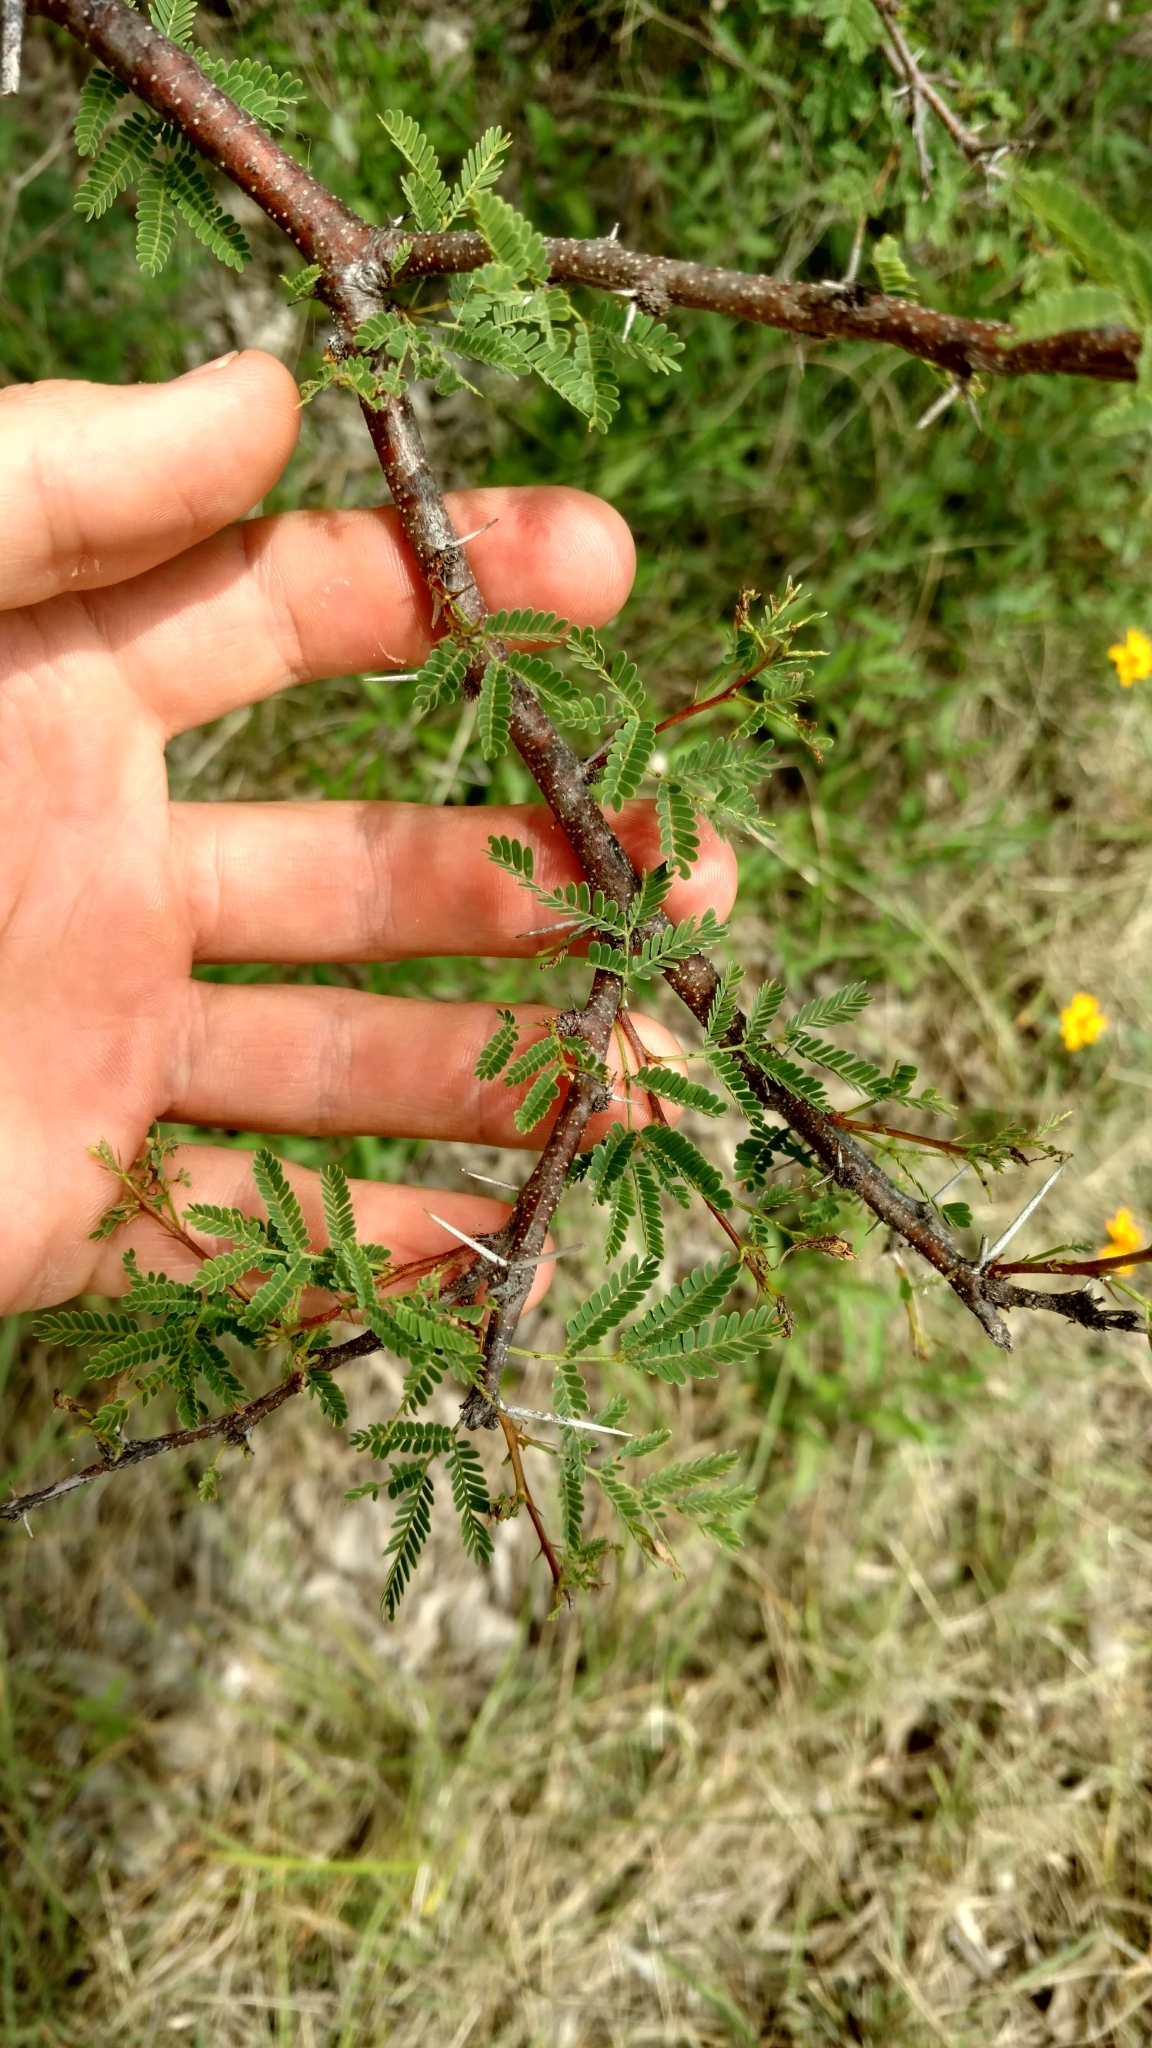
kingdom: Plantae
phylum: Tracheophyta
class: Magnoliopsida
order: Fabales
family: Fabaceae
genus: Vachellia
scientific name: Vachellia farnesiana
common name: Sweet acacia
